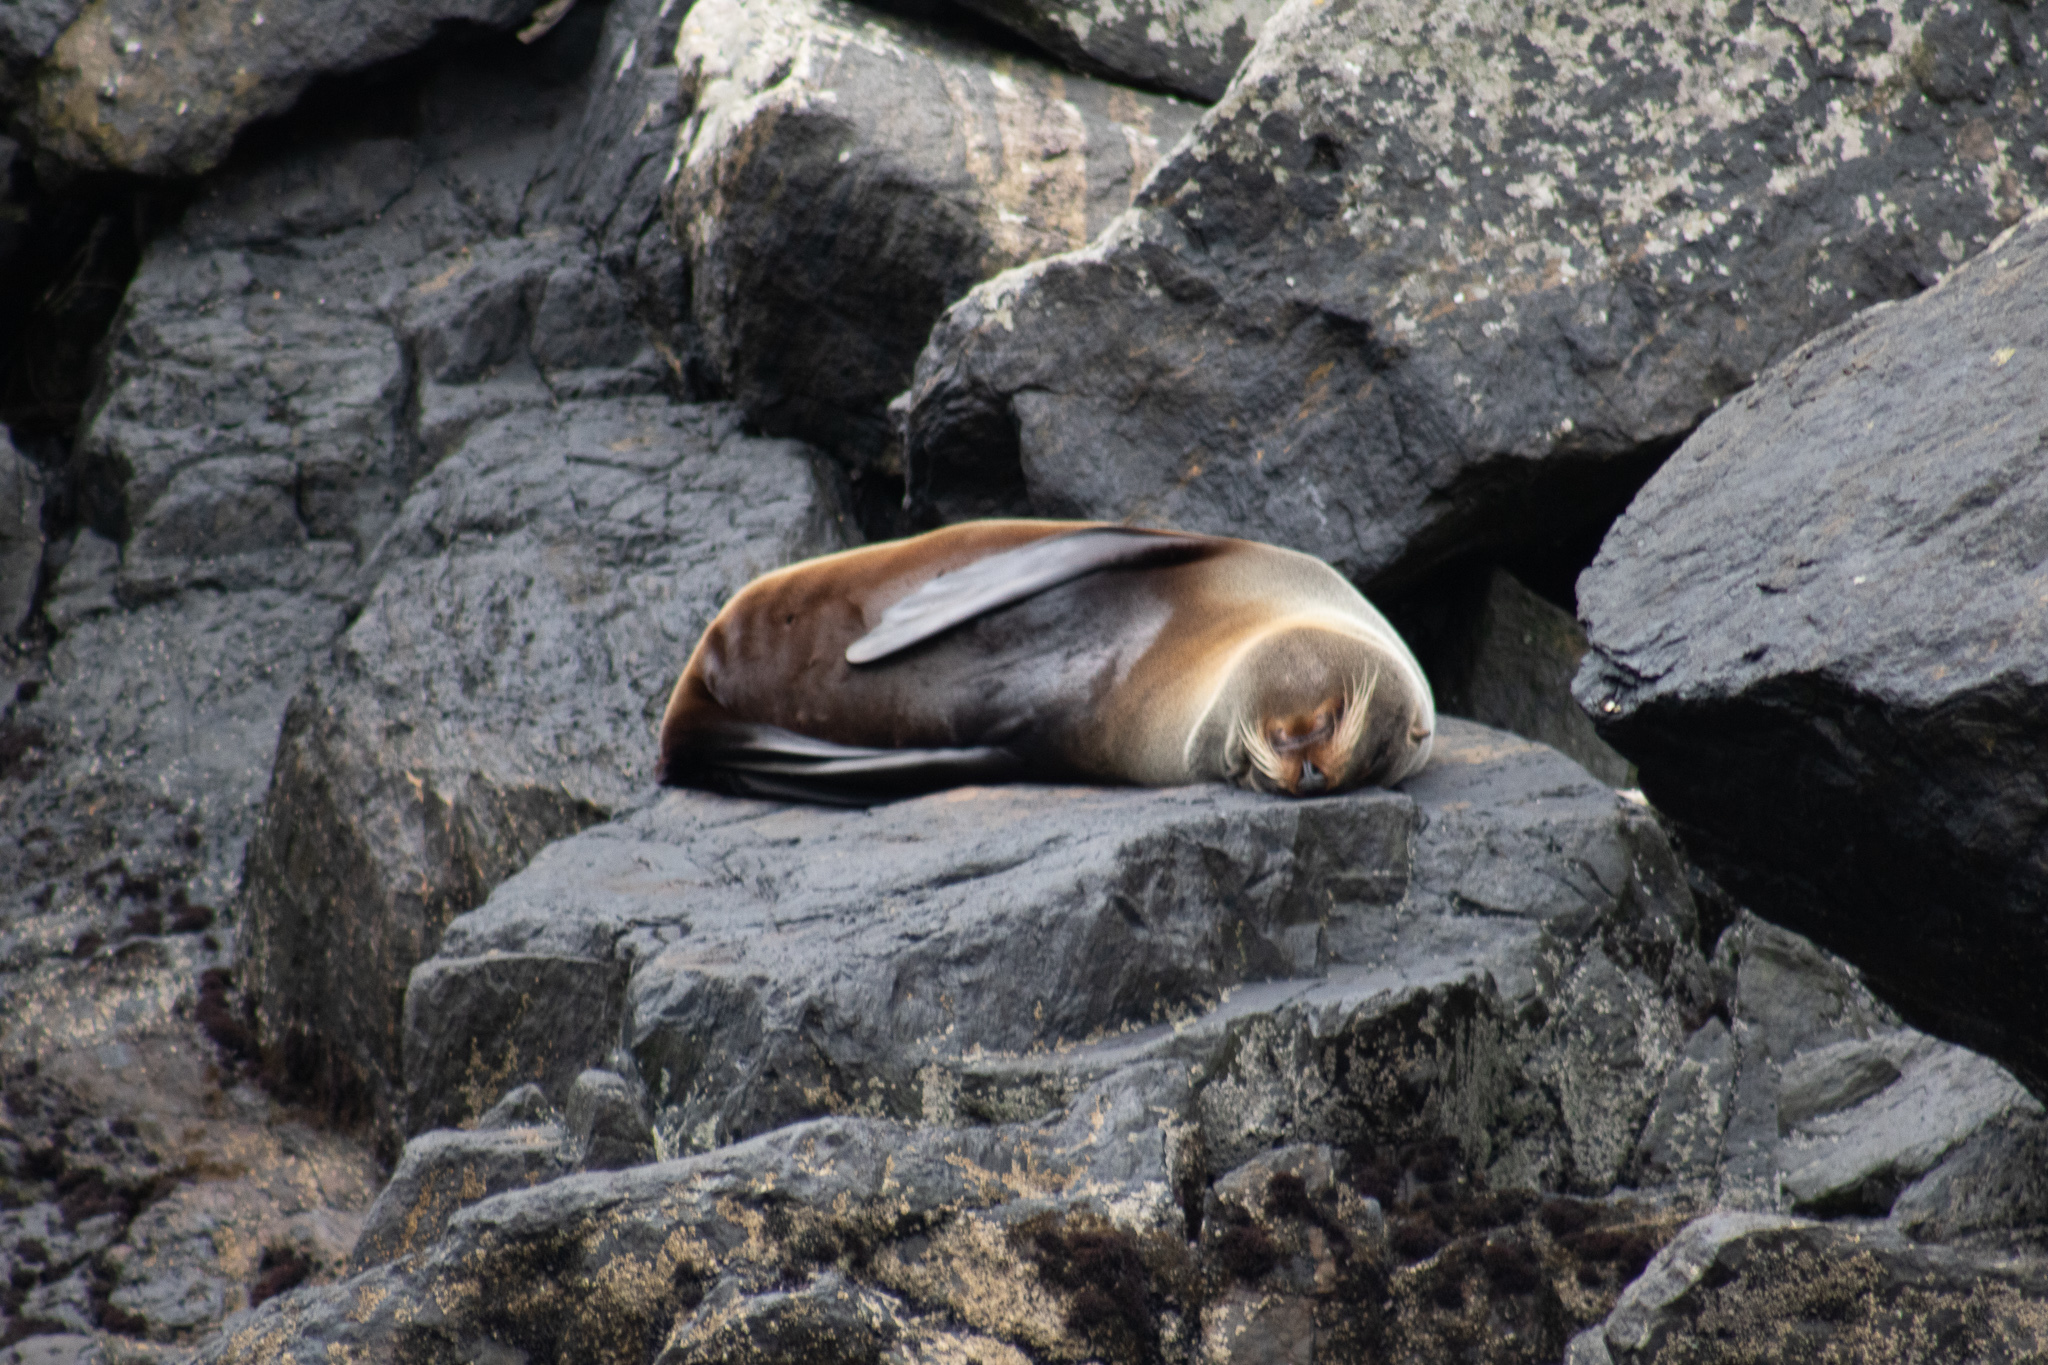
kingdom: Animalia
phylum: Chordata
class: Mammalia
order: Carnivora
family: Otariidae
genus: Arctocephalus
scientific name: Arctocephalus forsteri
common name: New zealand fur seal
